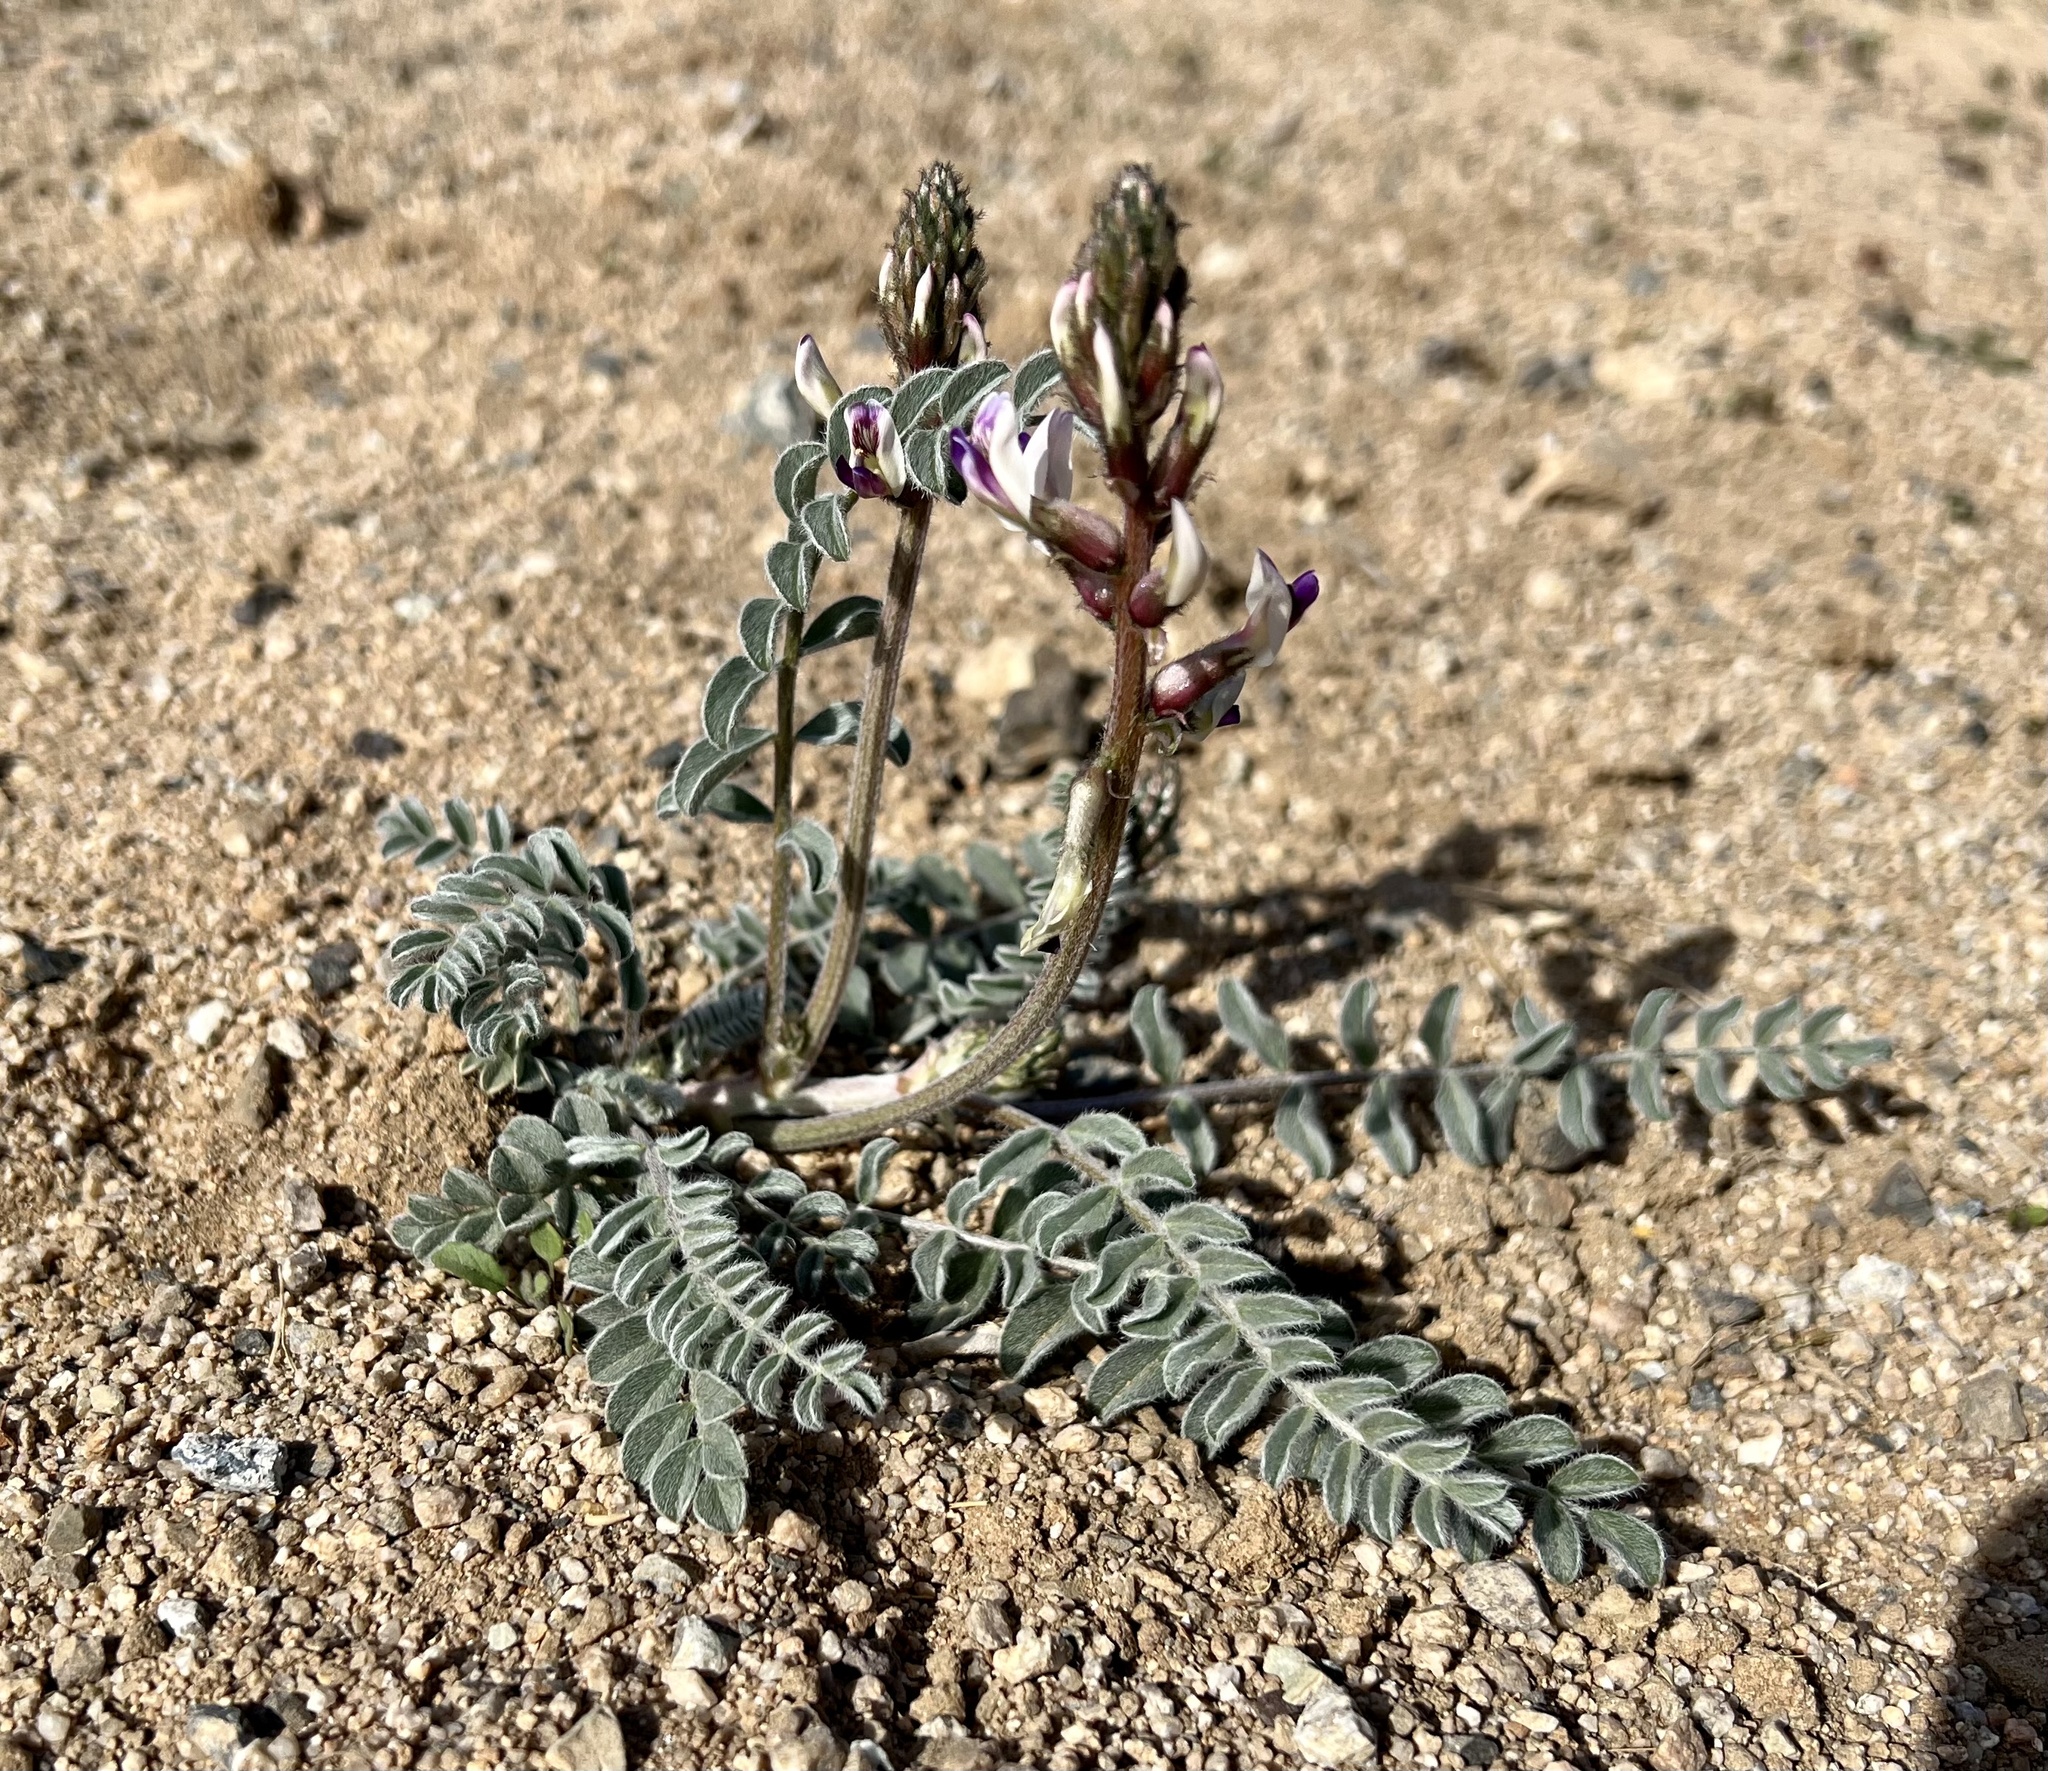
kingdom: Plantae
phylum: Tracheophyta
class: Magnoliopsida
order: Fabales
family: Fabaceae
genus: Astragalus
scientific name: Astragalus layneae
